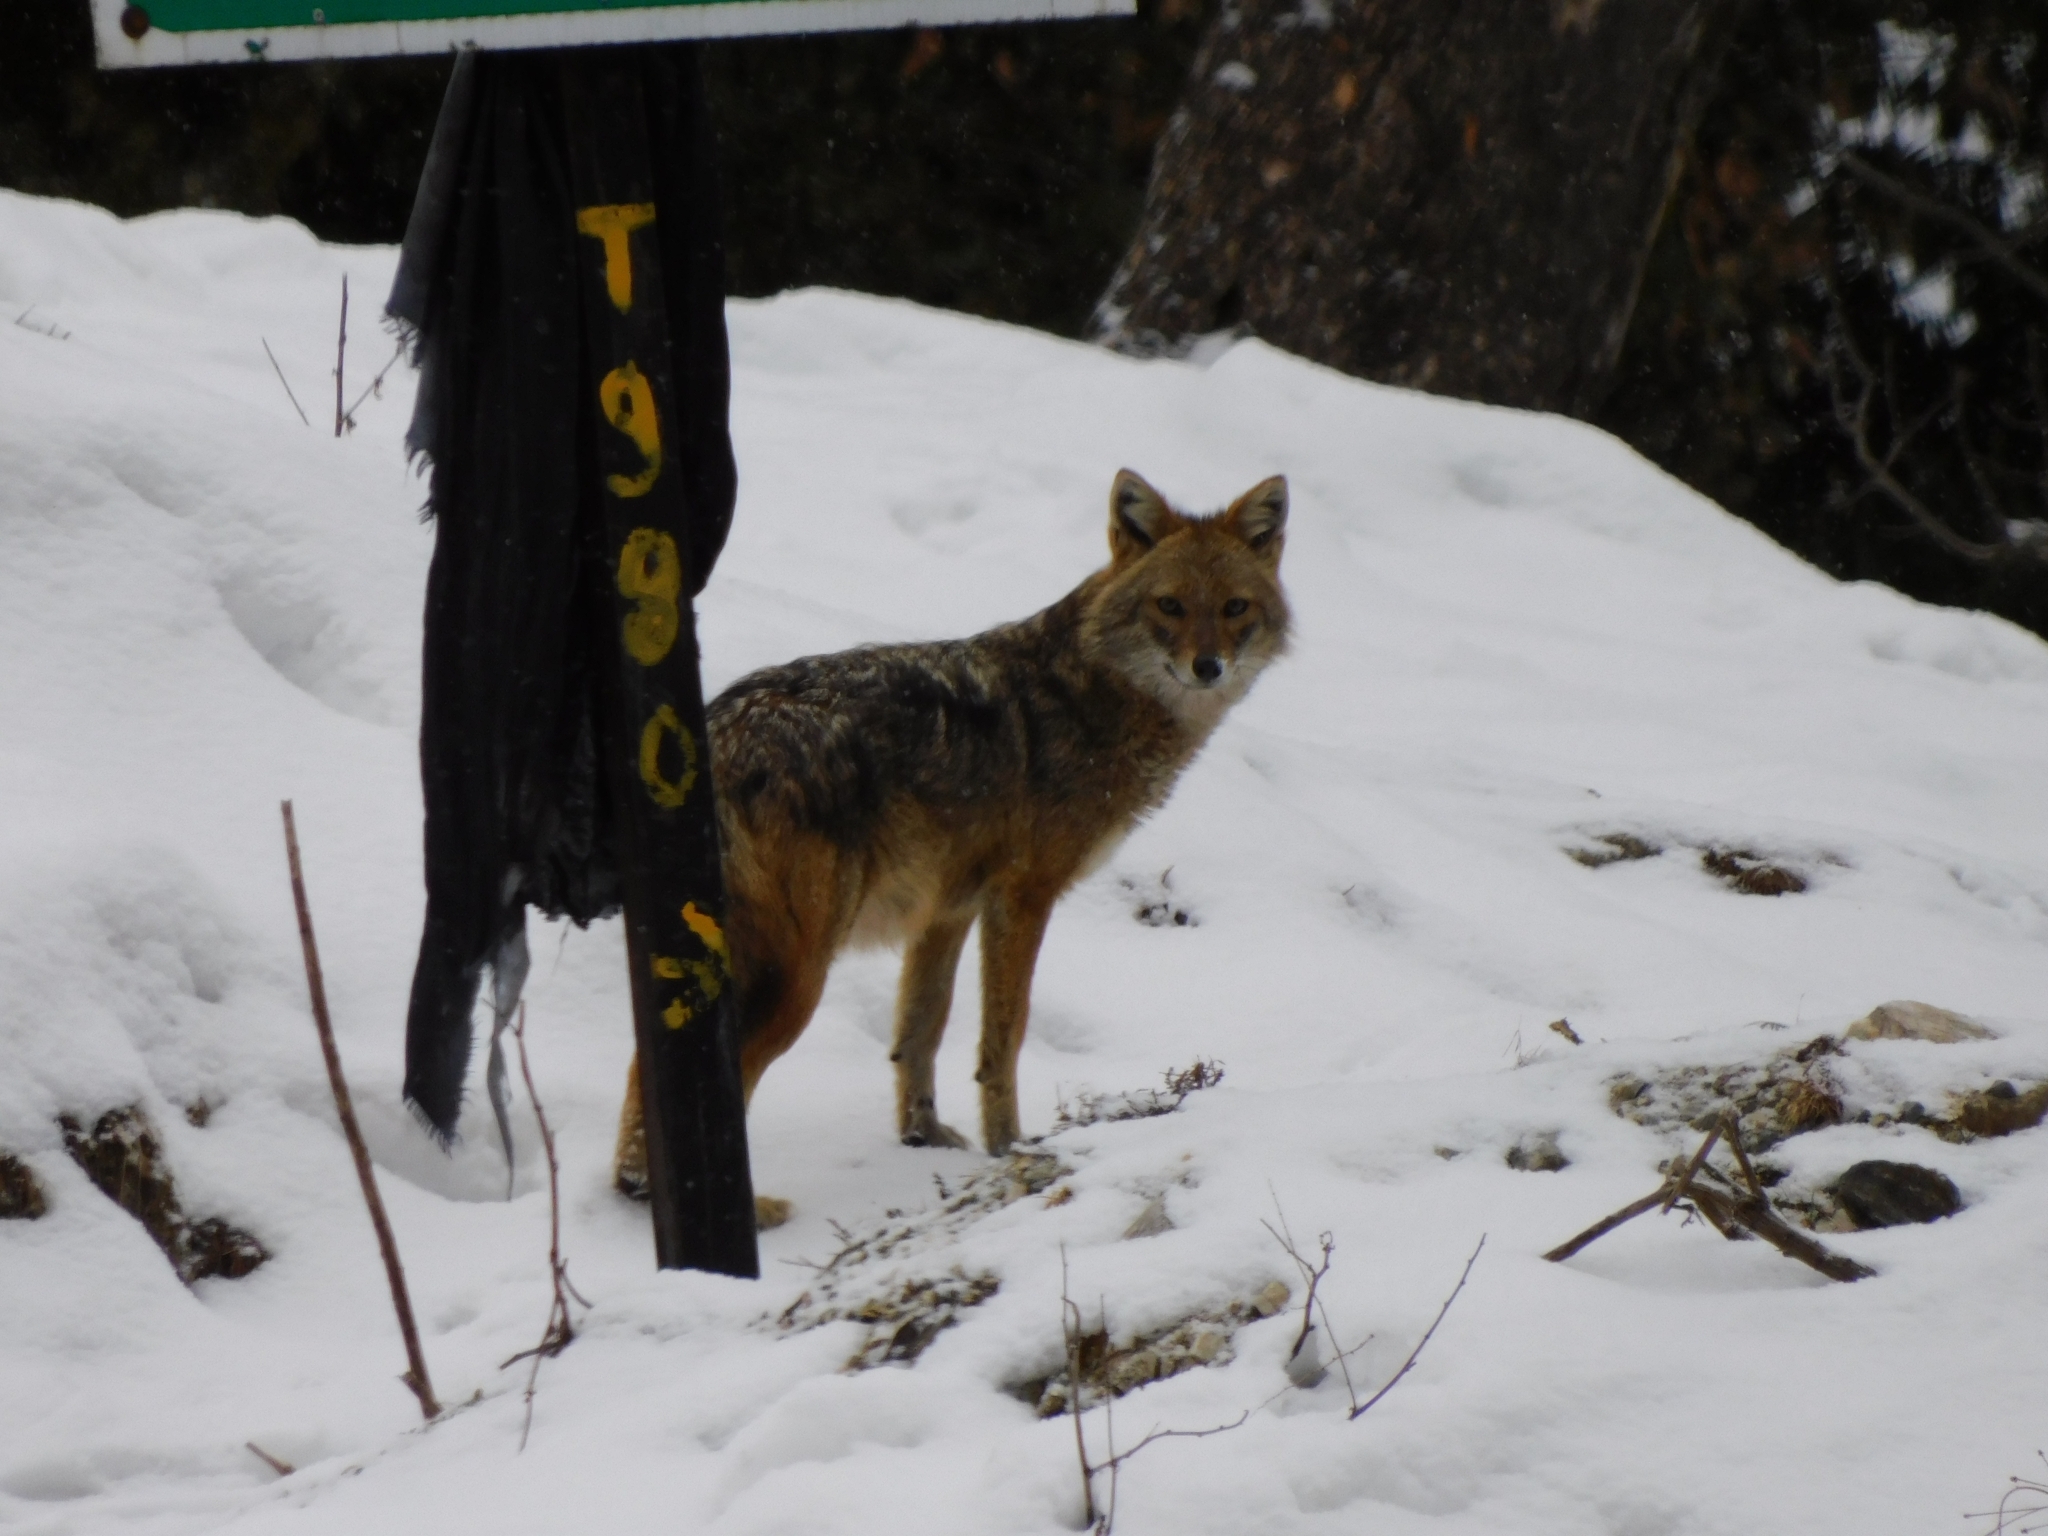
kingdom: Animalia
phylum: Chordata
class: Mammalia
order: Carnivora
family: Canidae
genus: Canis
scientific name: Canis aureus
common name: Golden jackal
